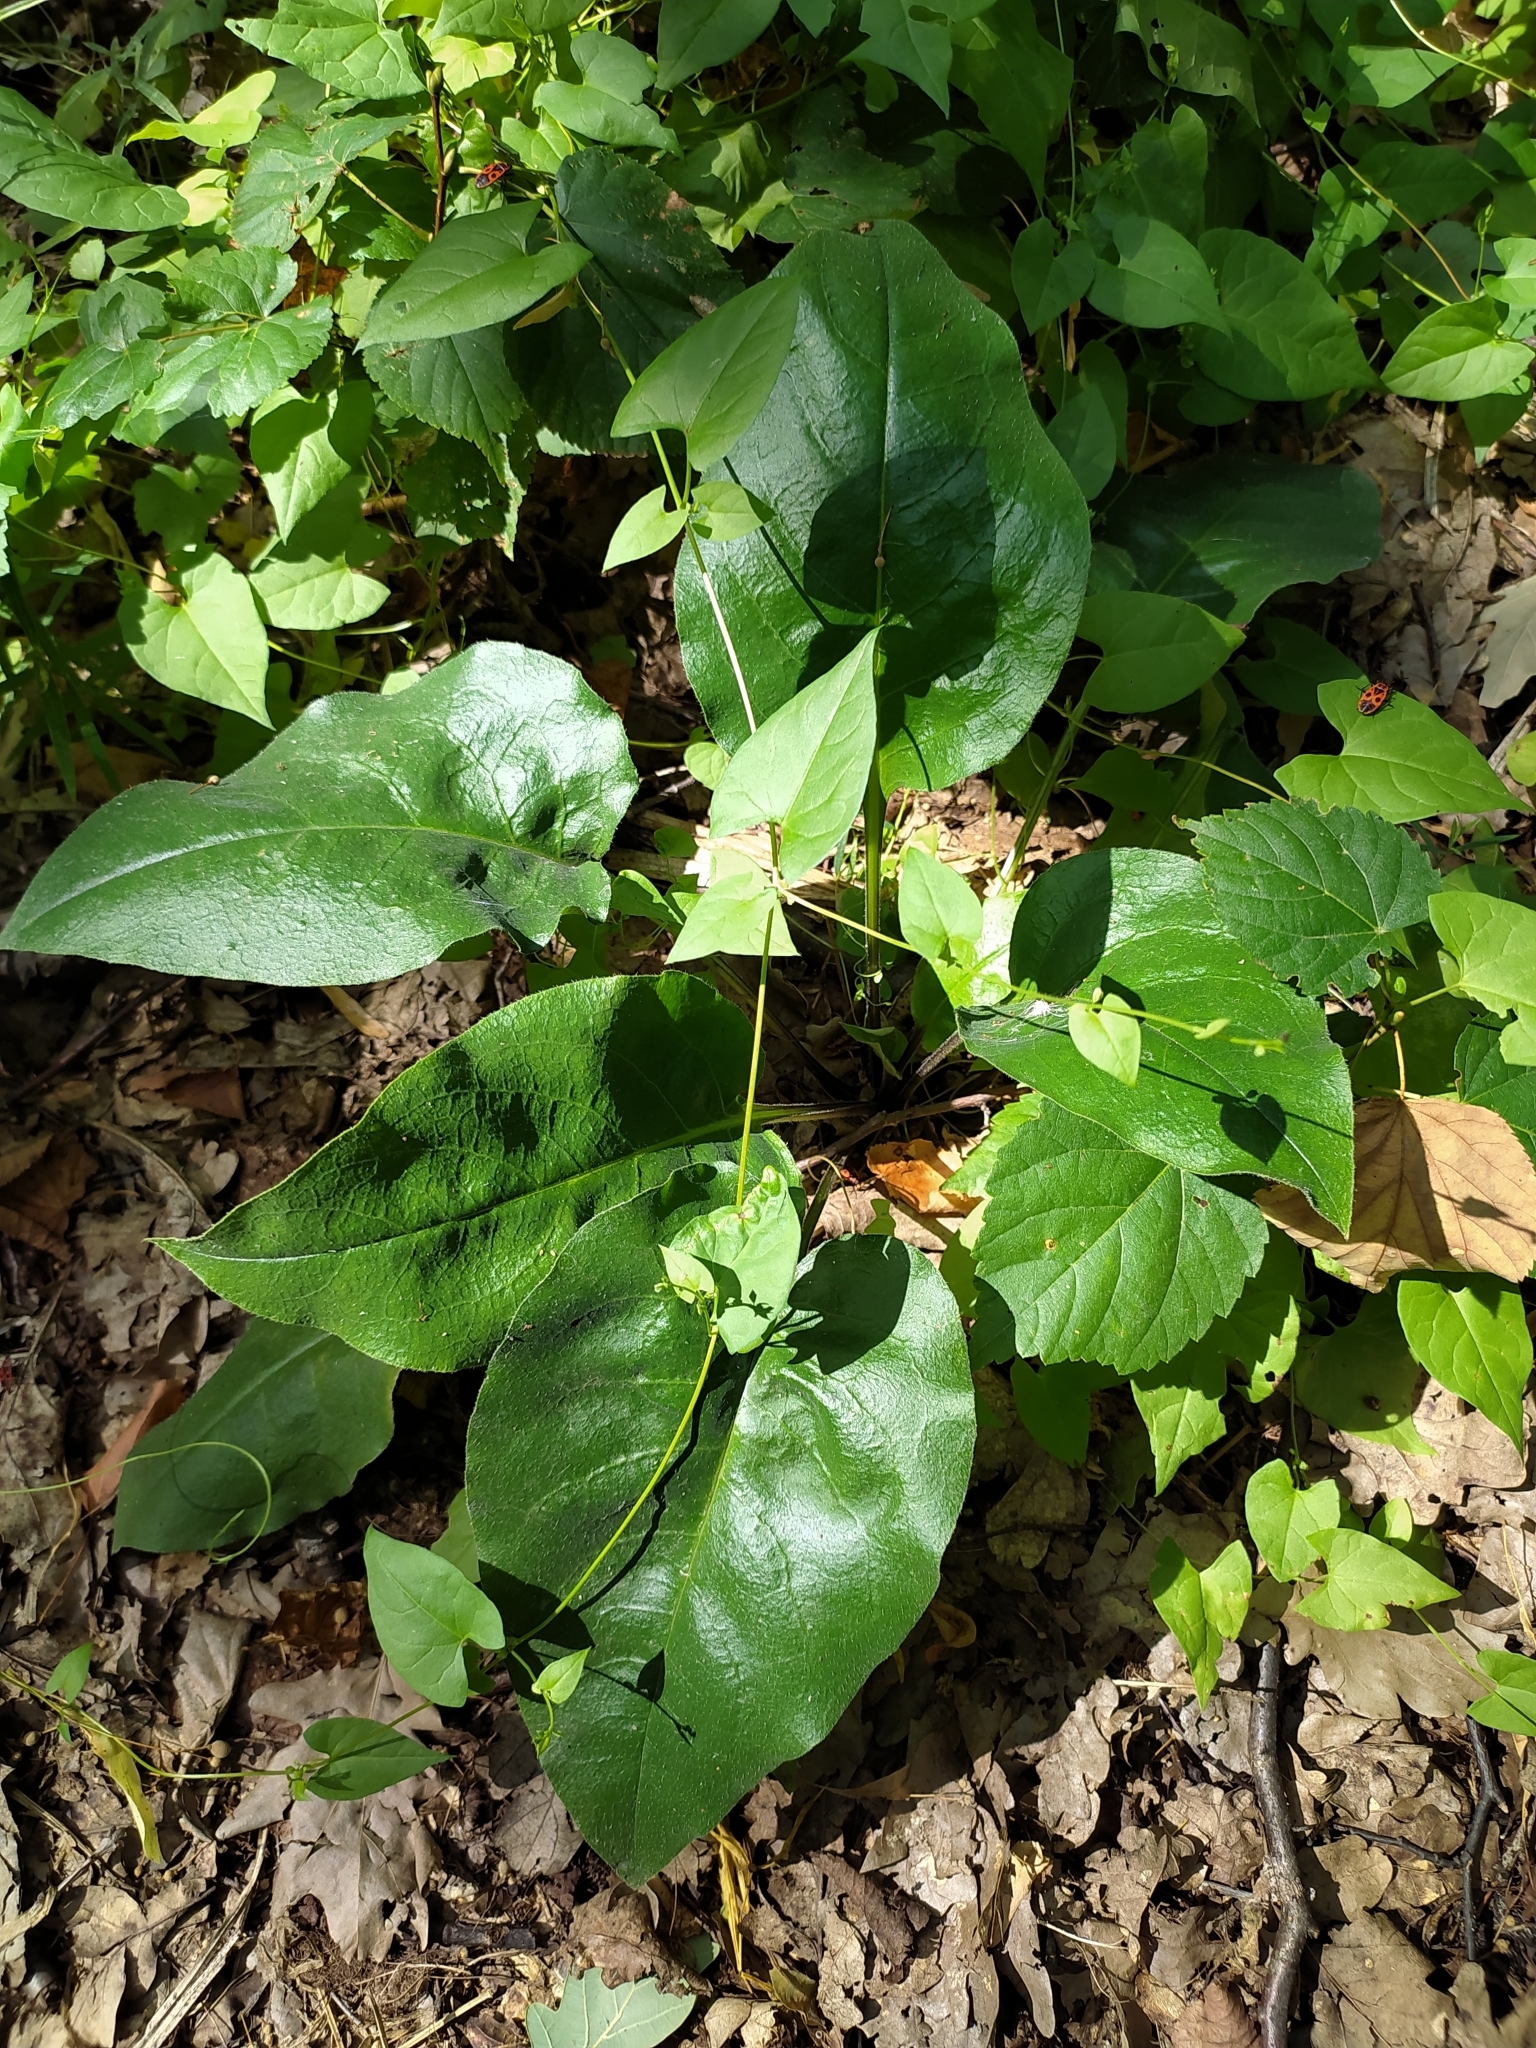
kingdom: Plantae
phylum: Tracheophyta
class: Magnoliopsida
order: Boraginales
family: Boraginaceae
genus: Pulmonaria
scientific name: Pulmonaria obscura
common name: Suffolk lungwort
